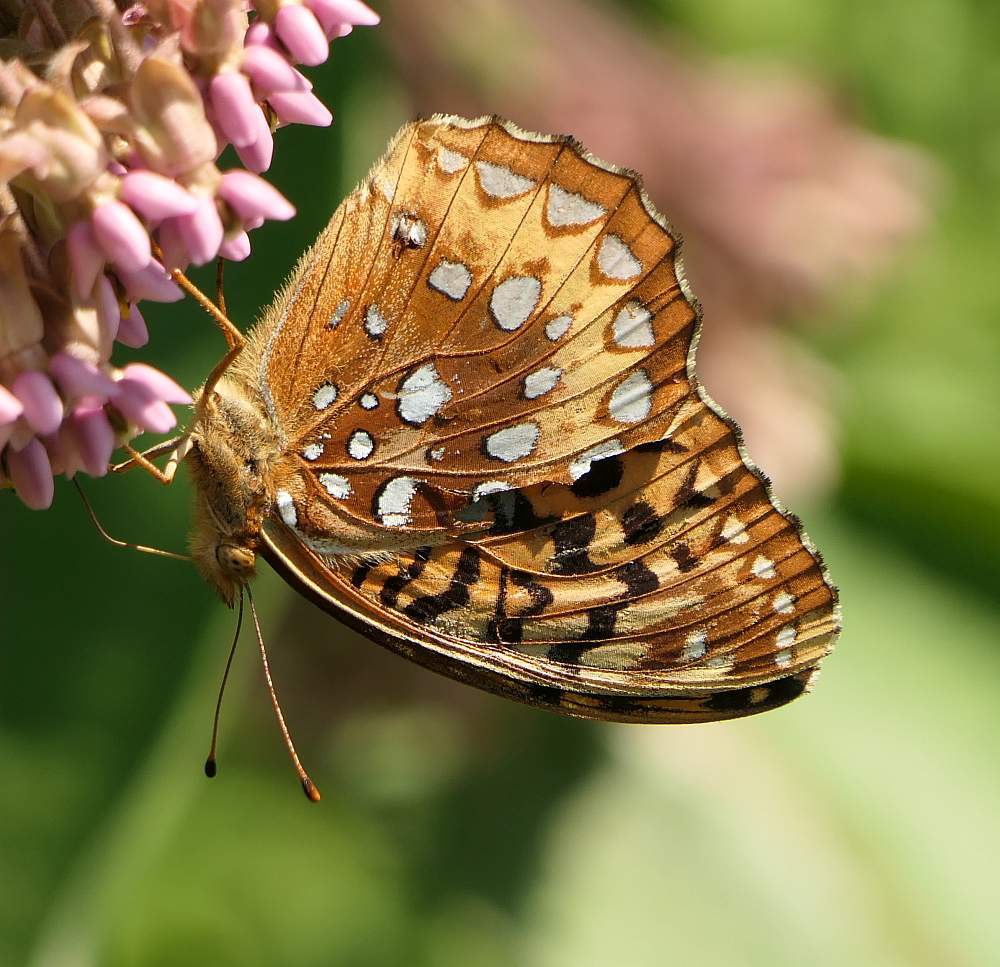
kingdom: Animalia
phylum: Arthropoda
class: Insecta
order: Lepidoptera
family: Nymphalidae
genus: Speyeria
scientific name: Speyeria cybele
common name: Great spangled fritillary
